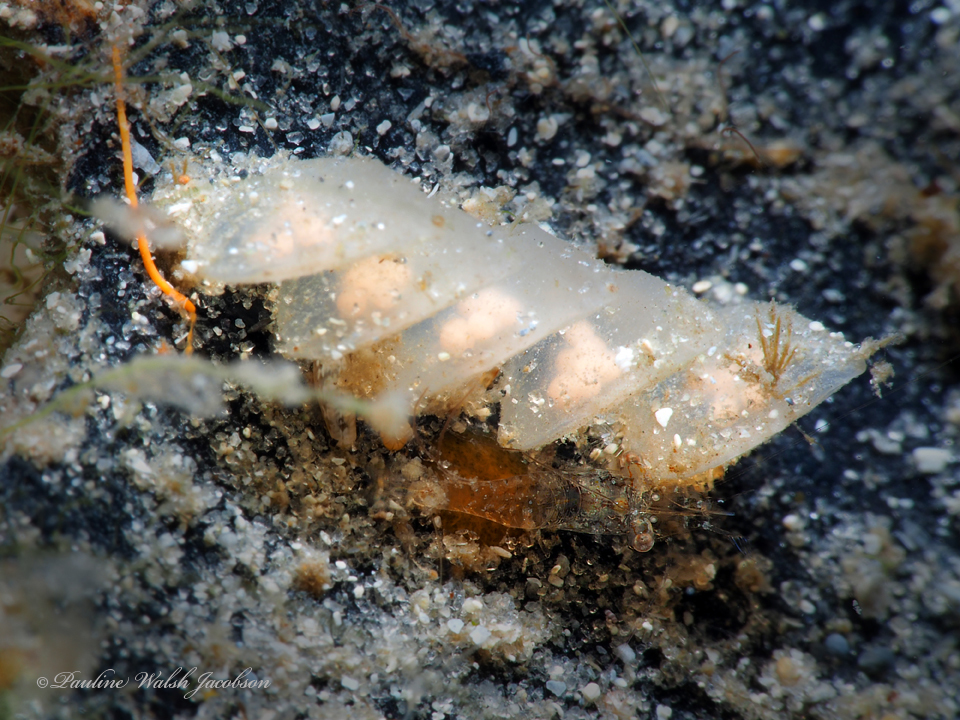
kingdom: Animalia
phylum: Arthropoda
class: Malacostraca
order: Decapoda
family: Palaemonidae
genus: Palaemonella
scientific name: Palaemonella
